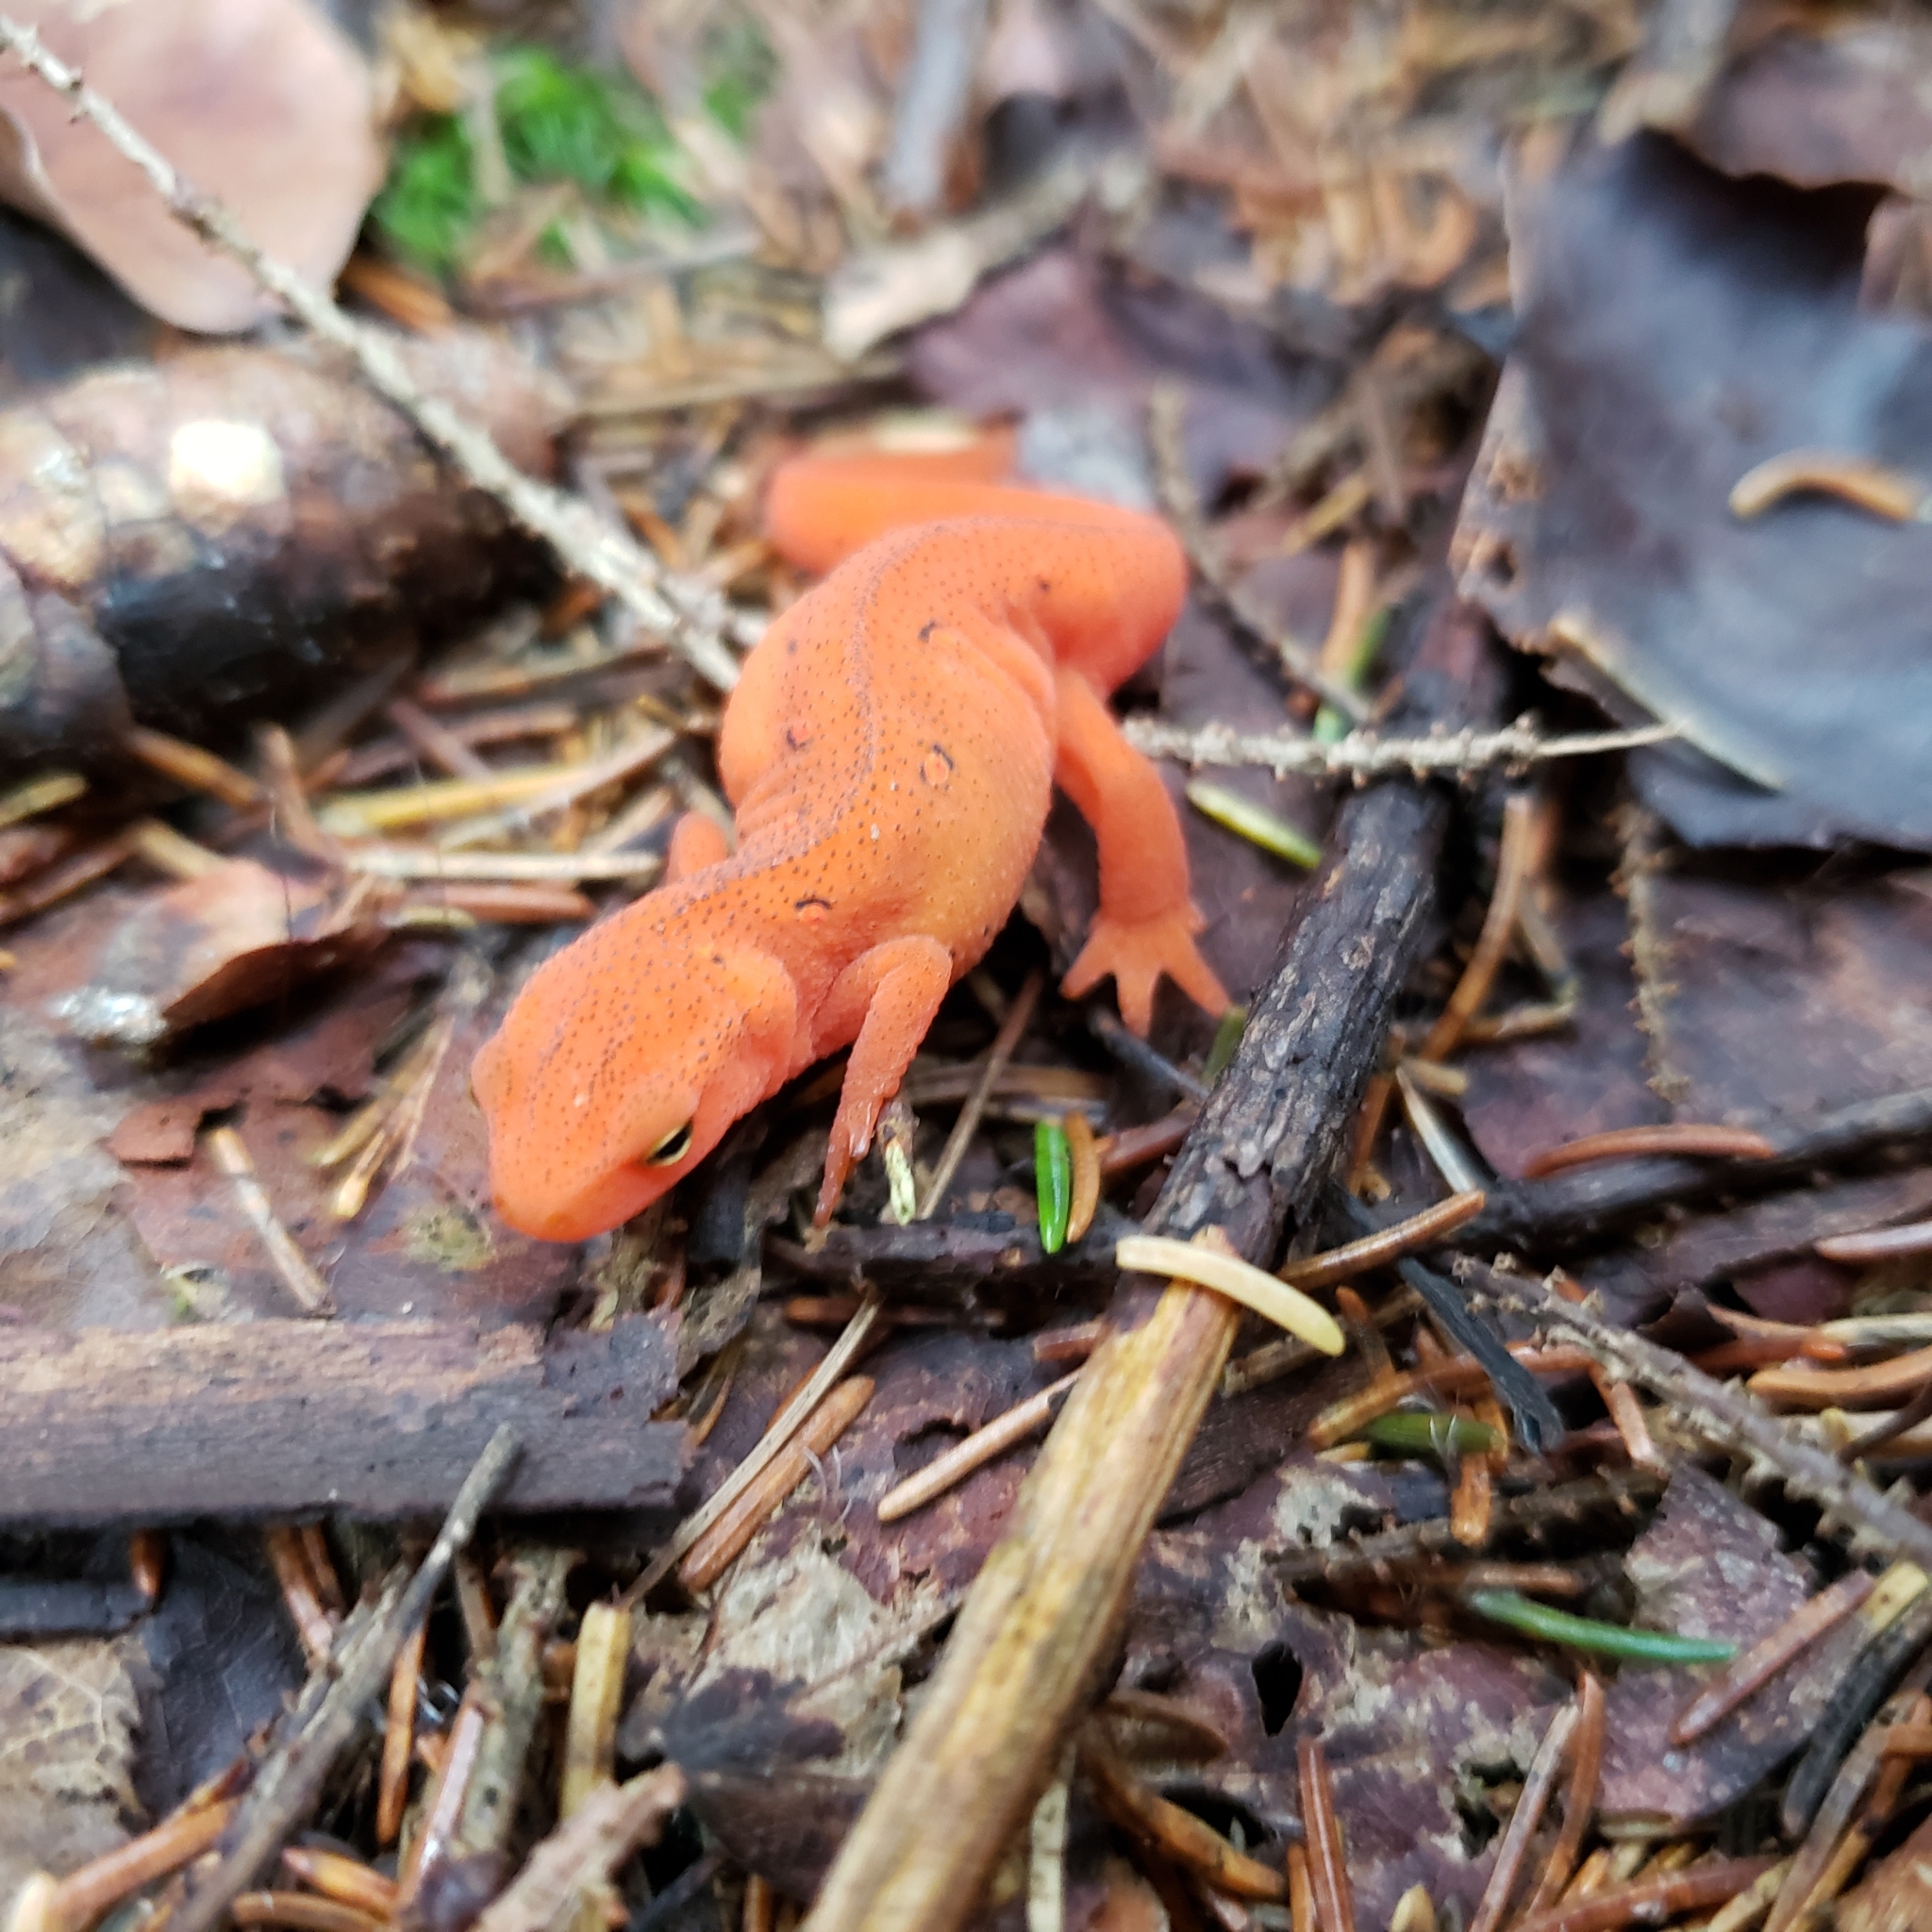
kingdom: Animalia
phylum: Chordata
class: Amphibia
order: Caudata
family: Salamandridae
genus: Notophthalmus
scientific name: Notophthalmus viridescens
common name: Eastern newt
